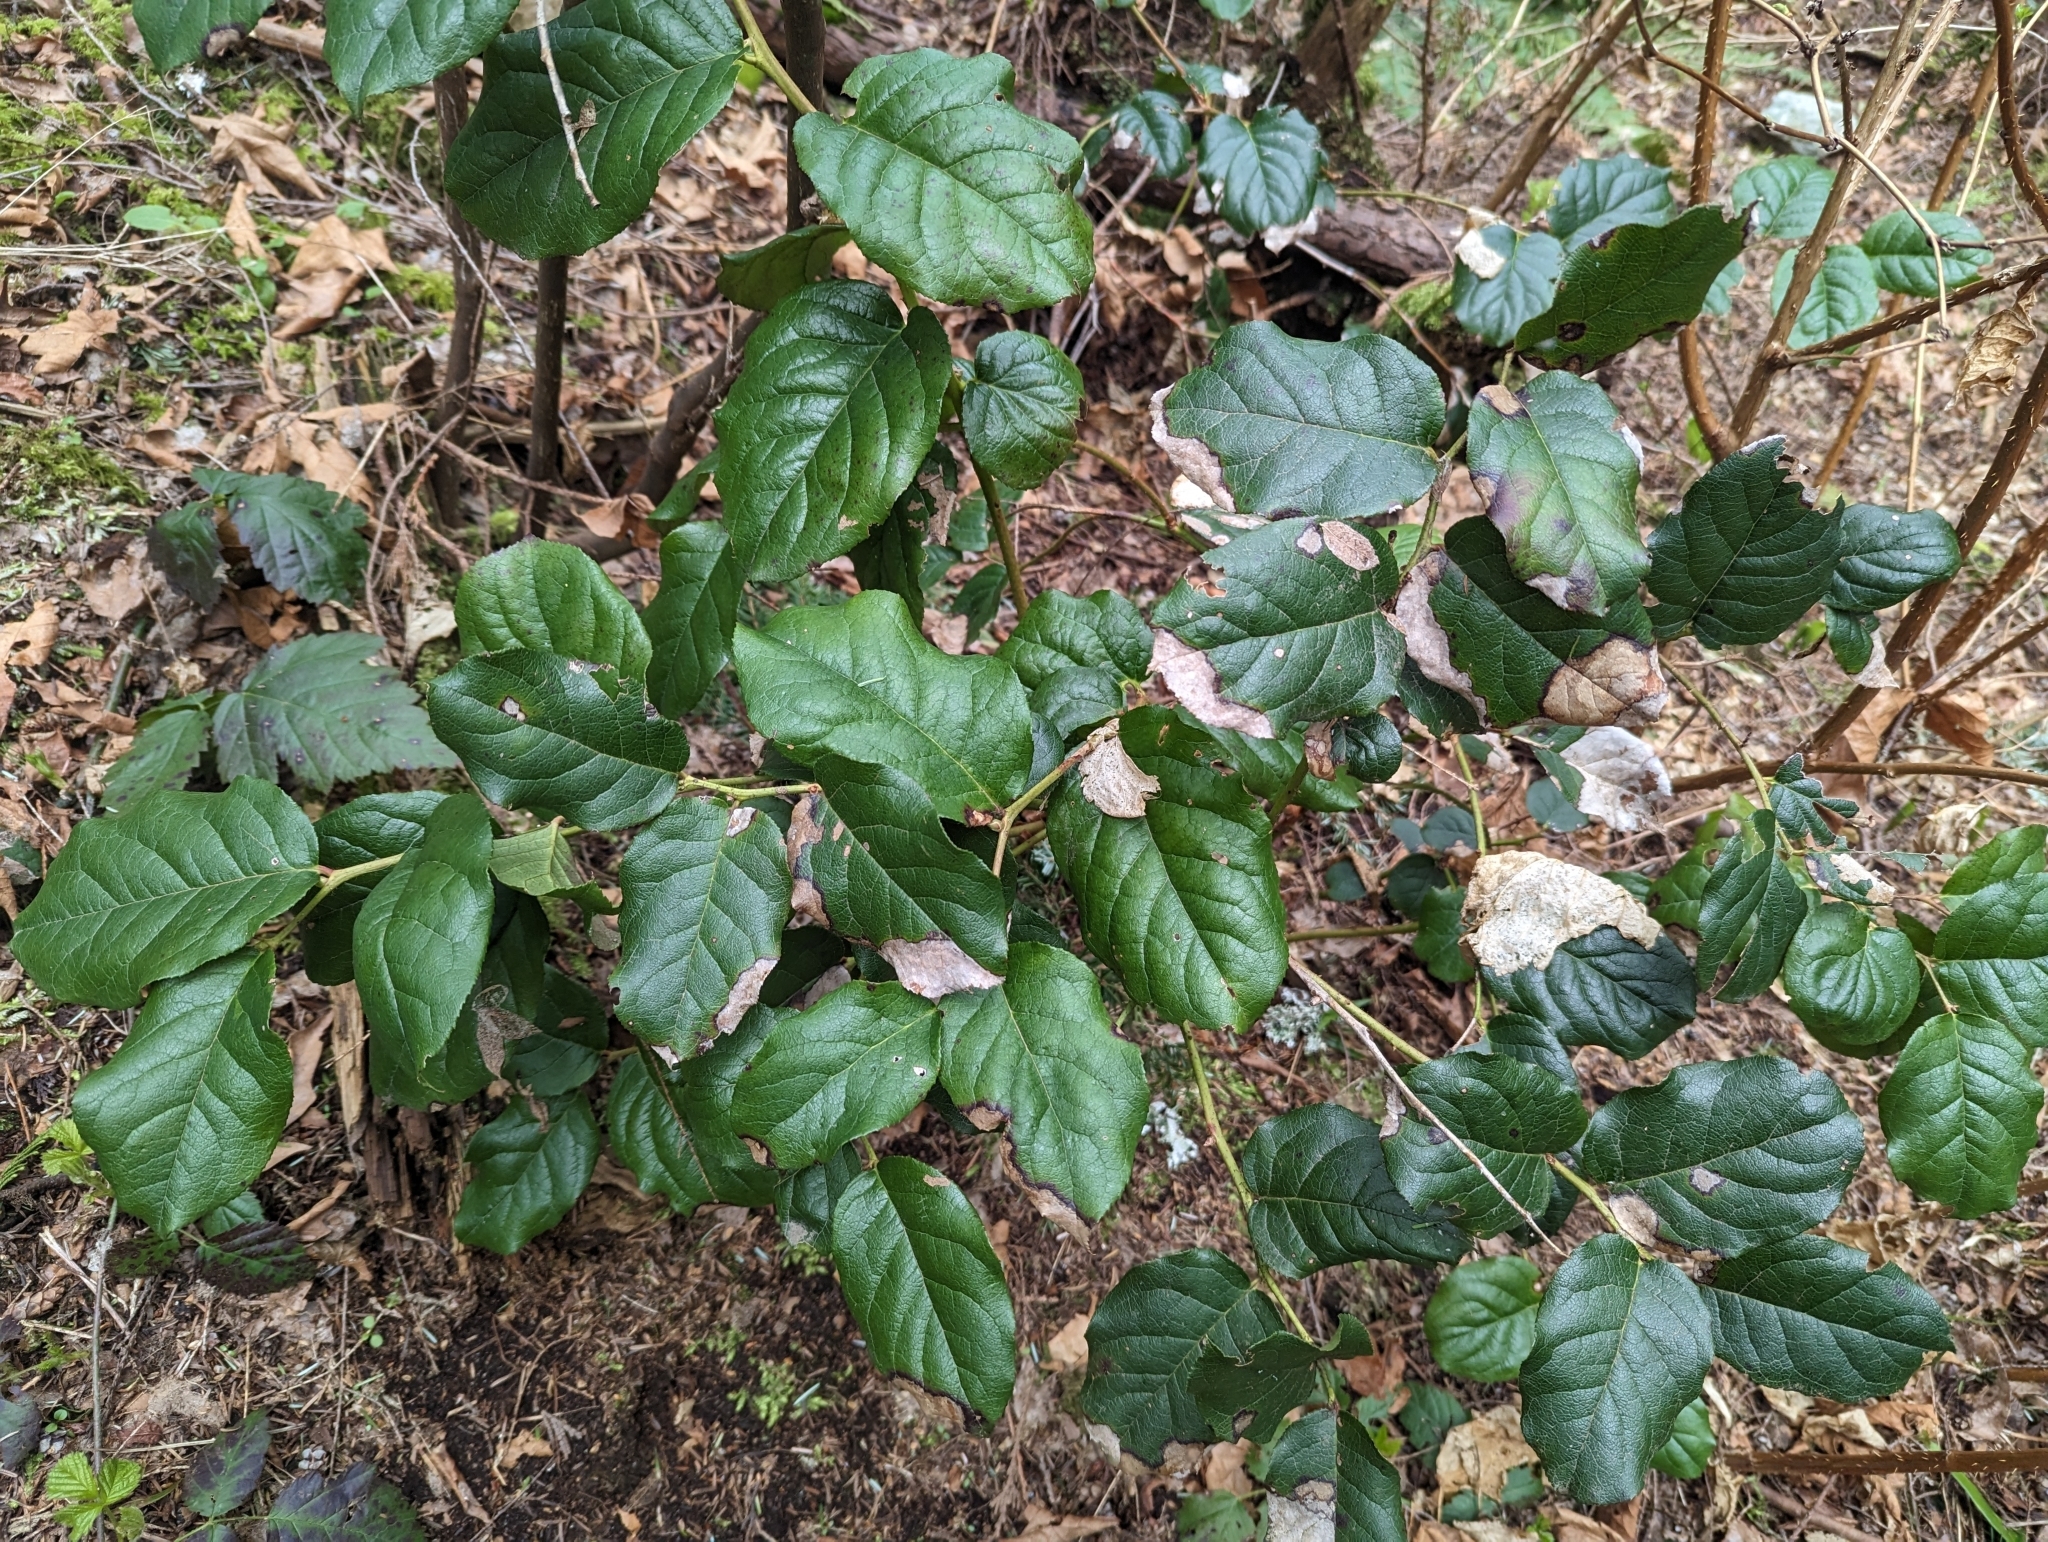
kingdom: Plantae
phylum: Tracheophyta
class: Magnoliopsida
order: Ericales
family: Ericaceae
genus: Gaultheria
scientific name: Gaultheria shallon
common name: Shallon
